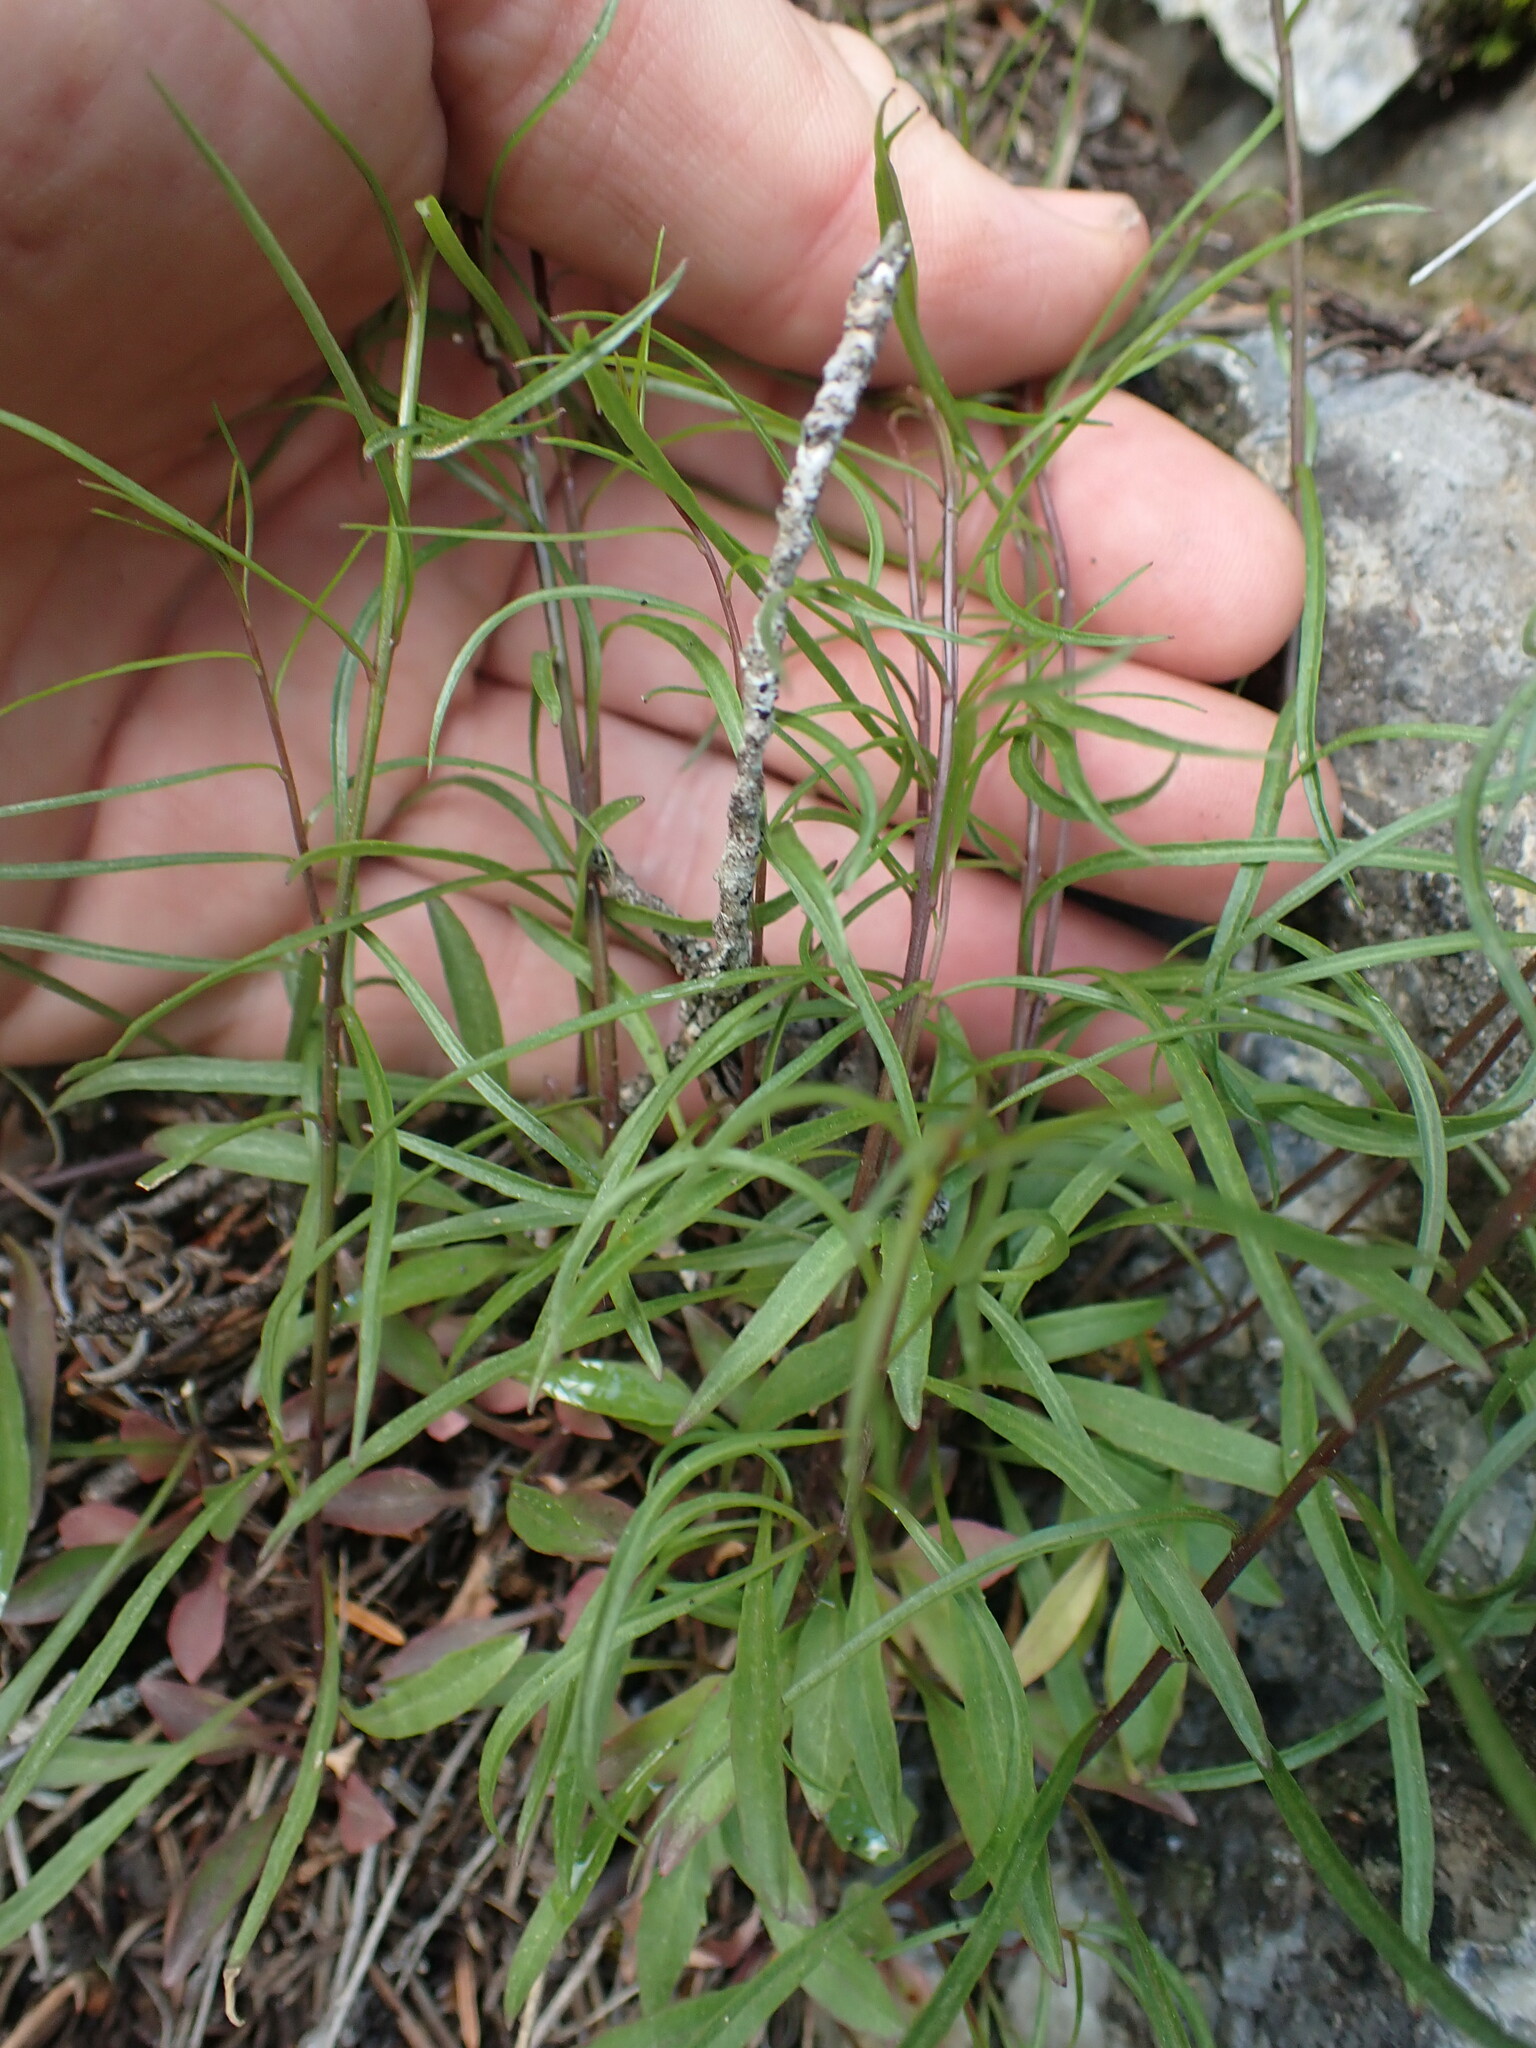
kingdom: Plantae
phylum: Tracheophyta
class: Magnoliopsida
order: Asterales
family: Campanulaceae
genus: Campanula
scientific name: Campanula alaskana
